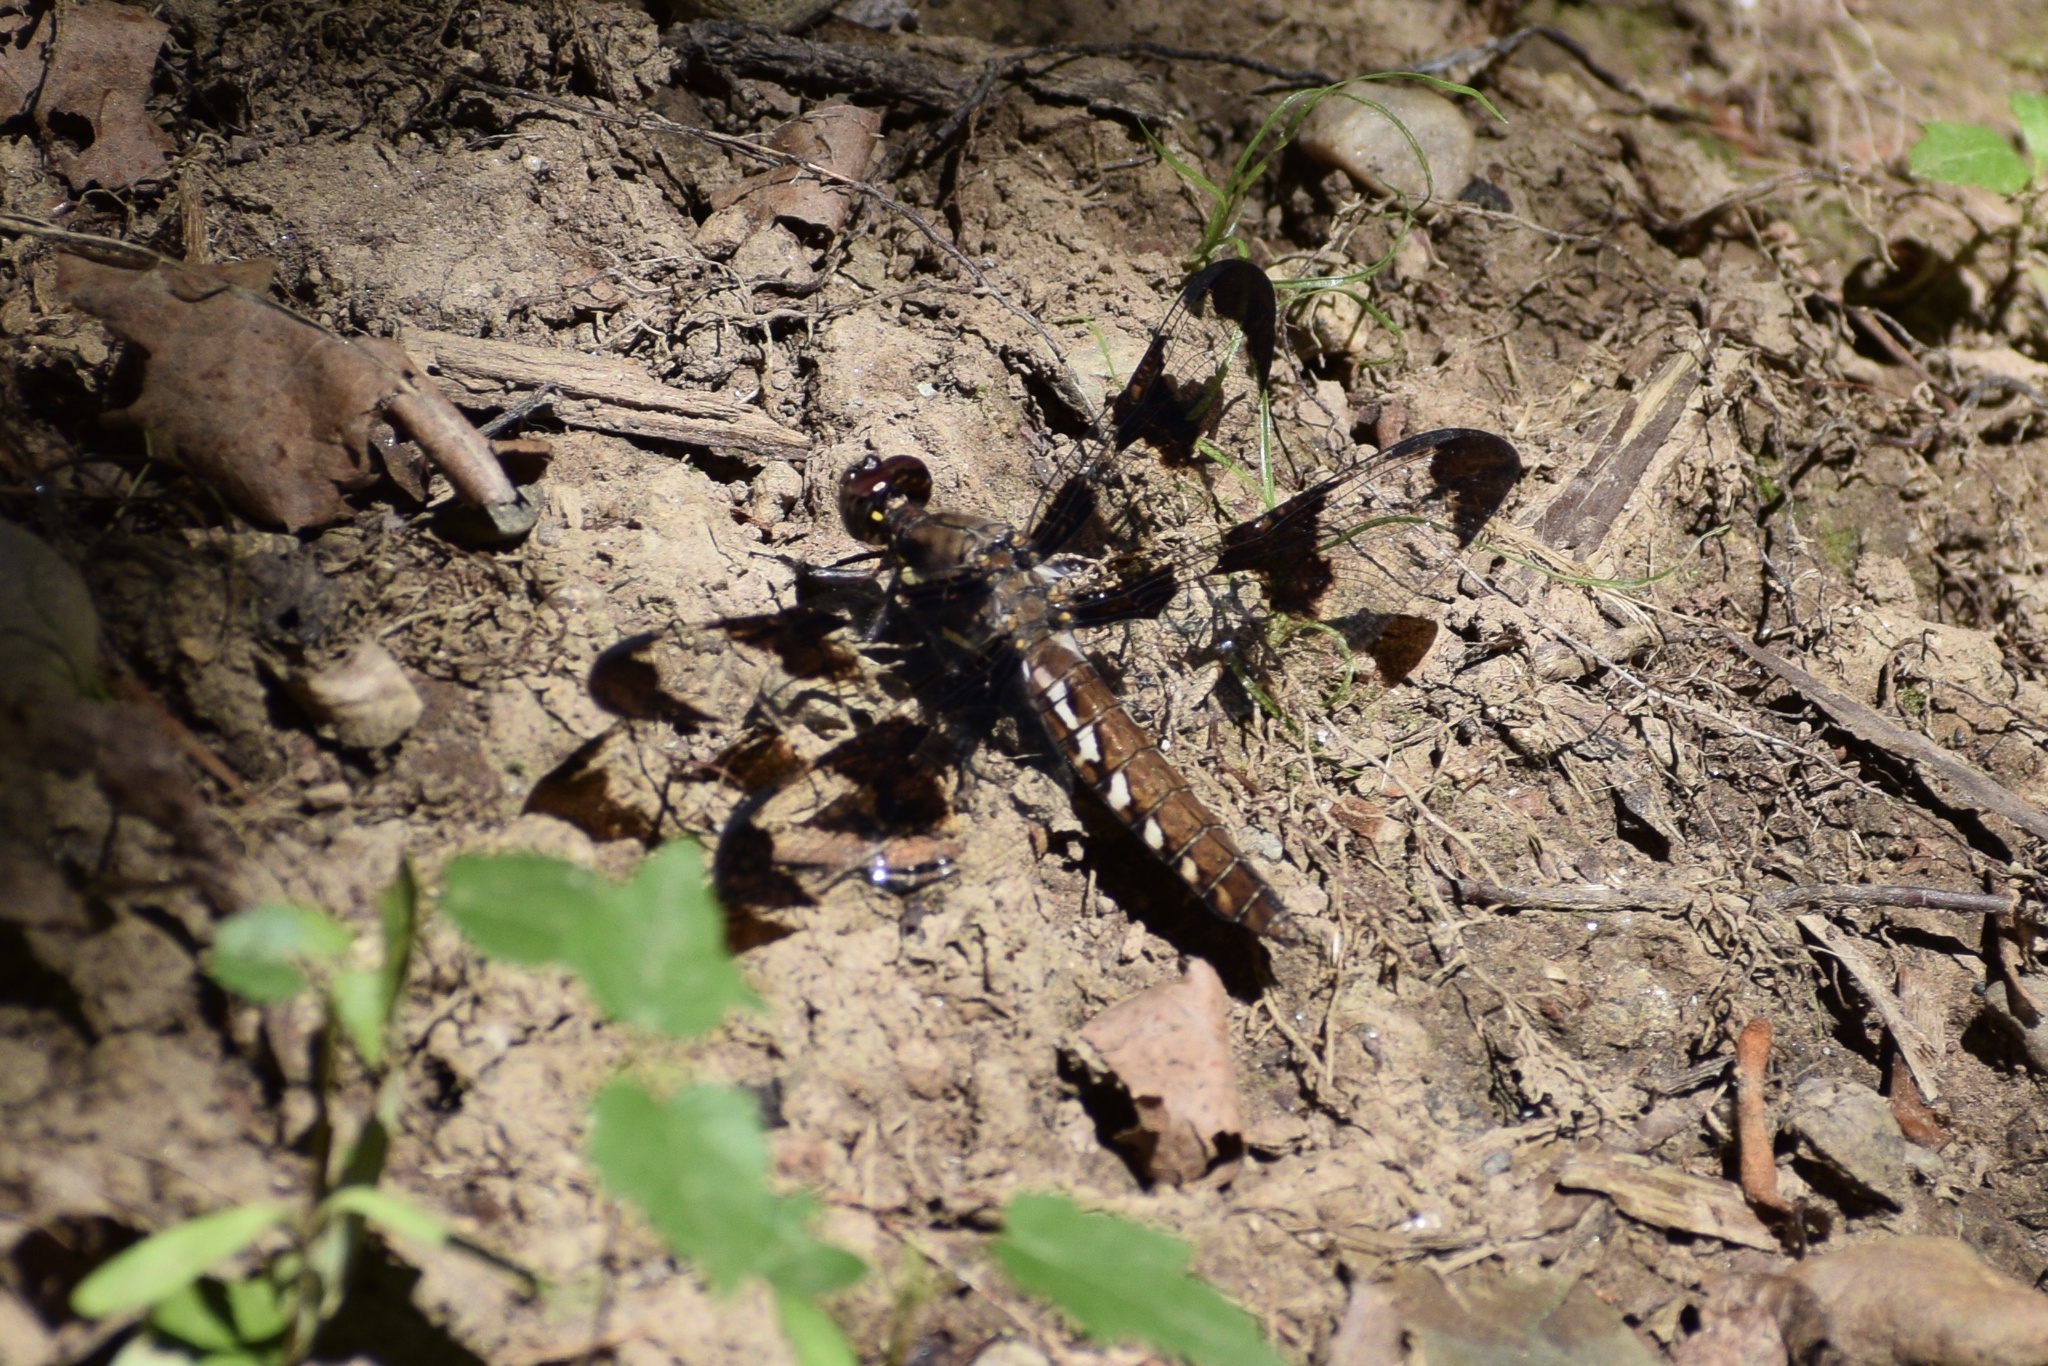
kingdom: Animalia
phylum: Arthropoda
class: Insecta
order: Odonata
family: Libellulidae
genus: Plathemis
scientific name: Plathemis lydia
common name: Common whitetail
